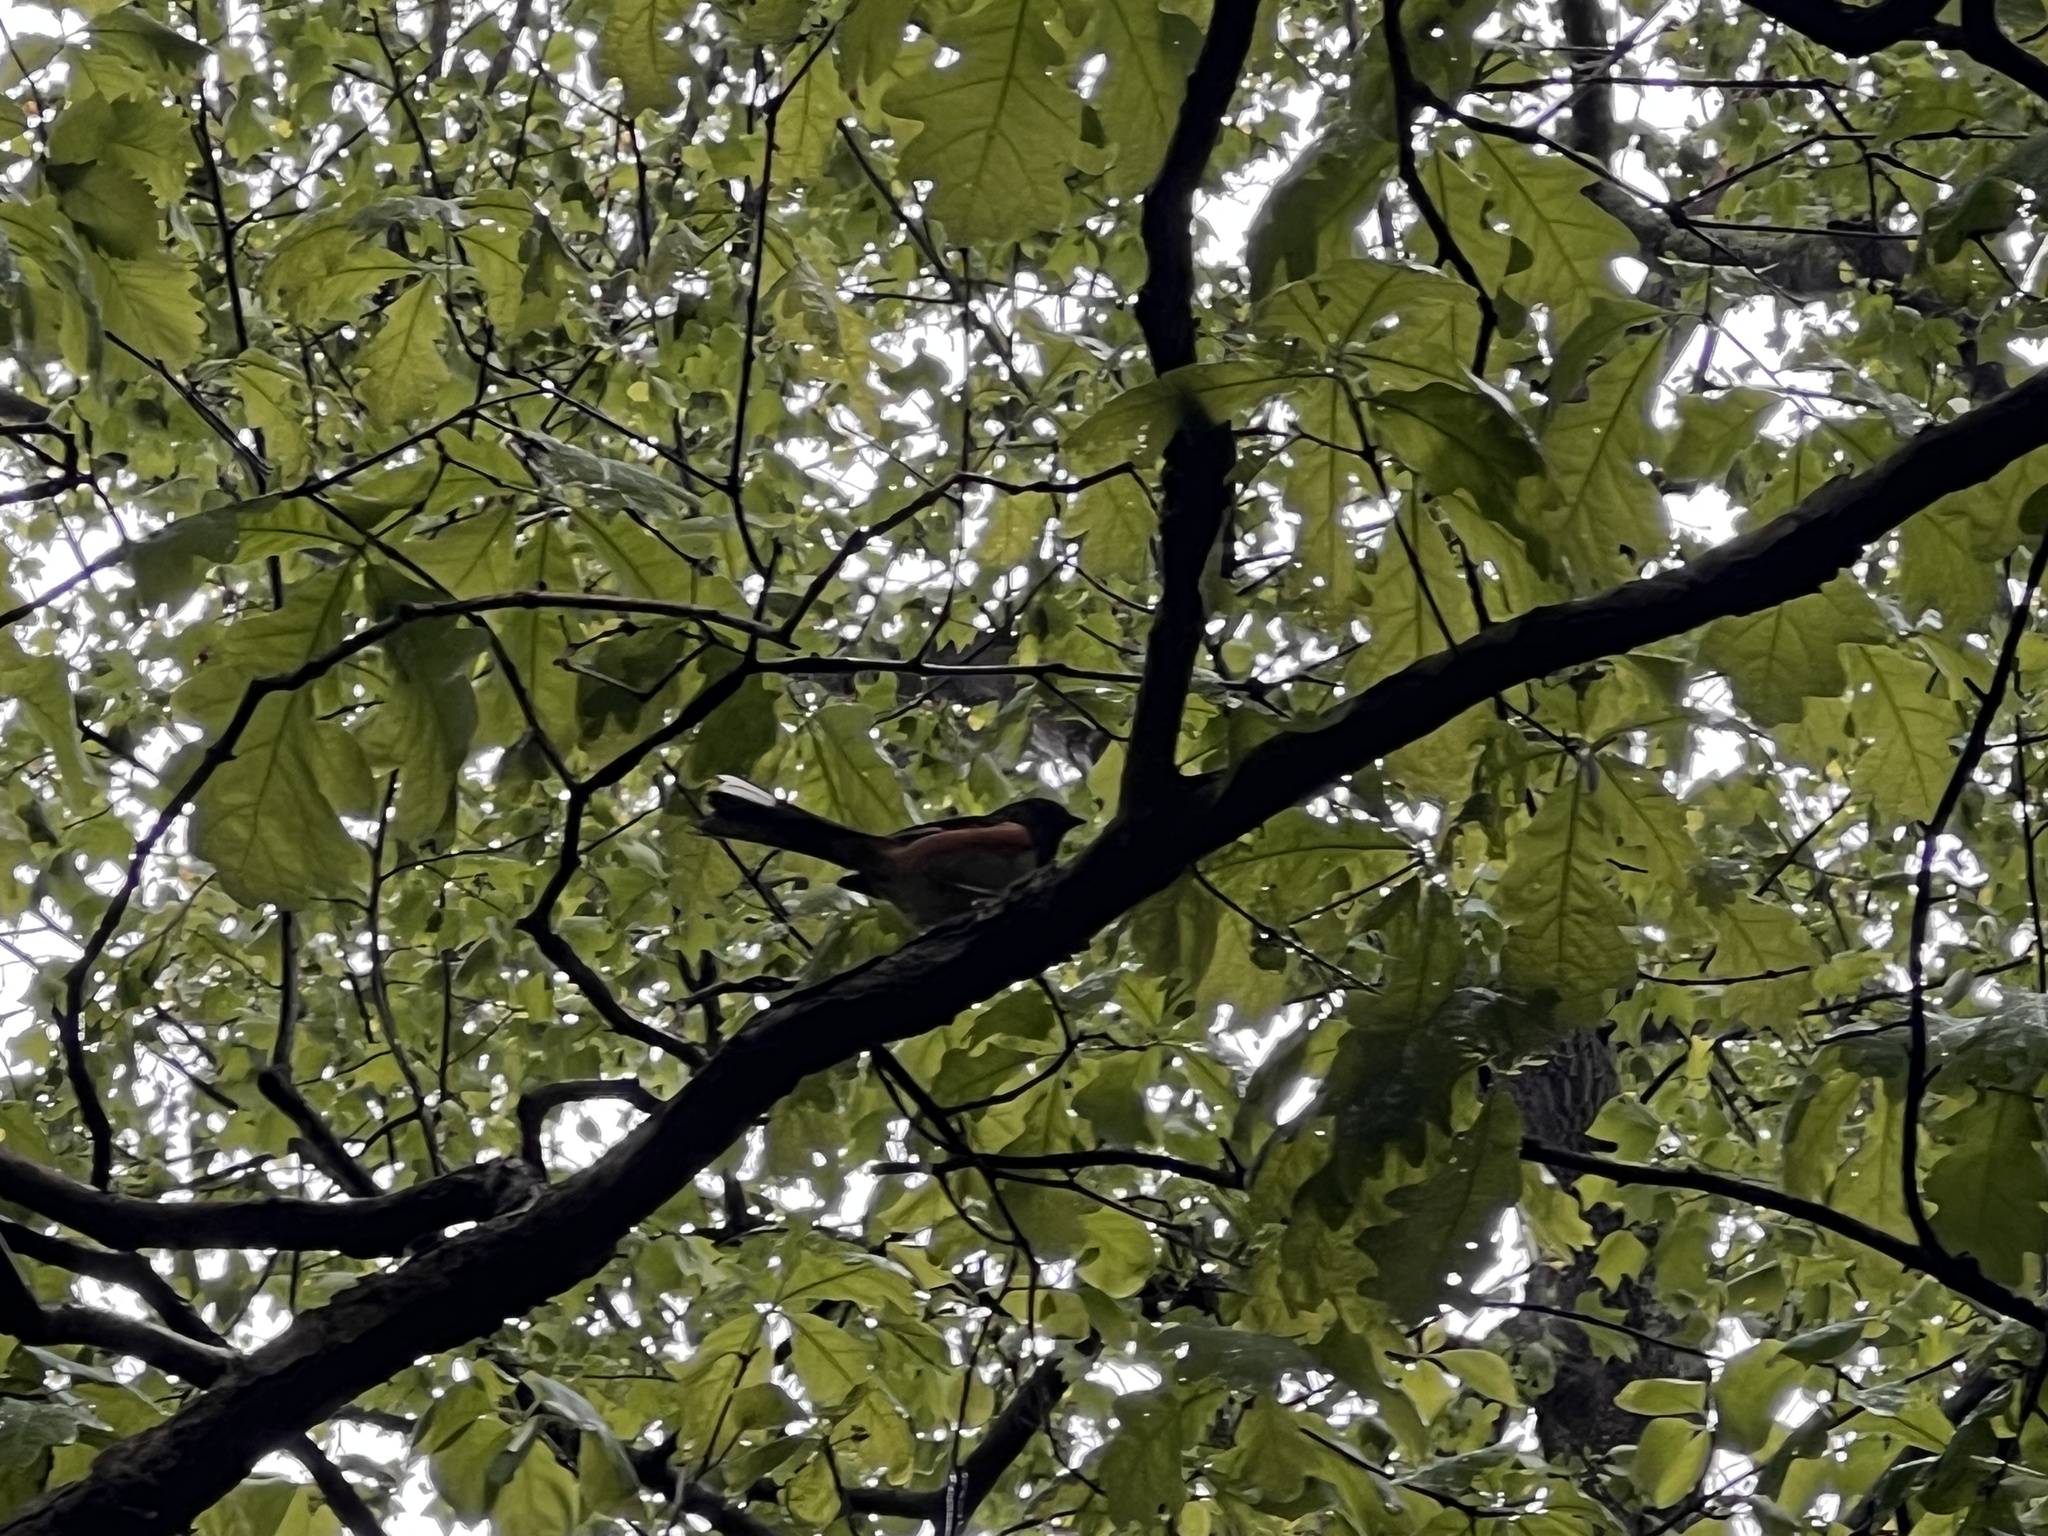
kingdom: Animalia
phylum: Chordata
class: Aves
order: Passeriformes
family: Passerellidae
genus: Pipilo
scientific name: Pipilo erythrophthalmus
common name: Eastern towhee
